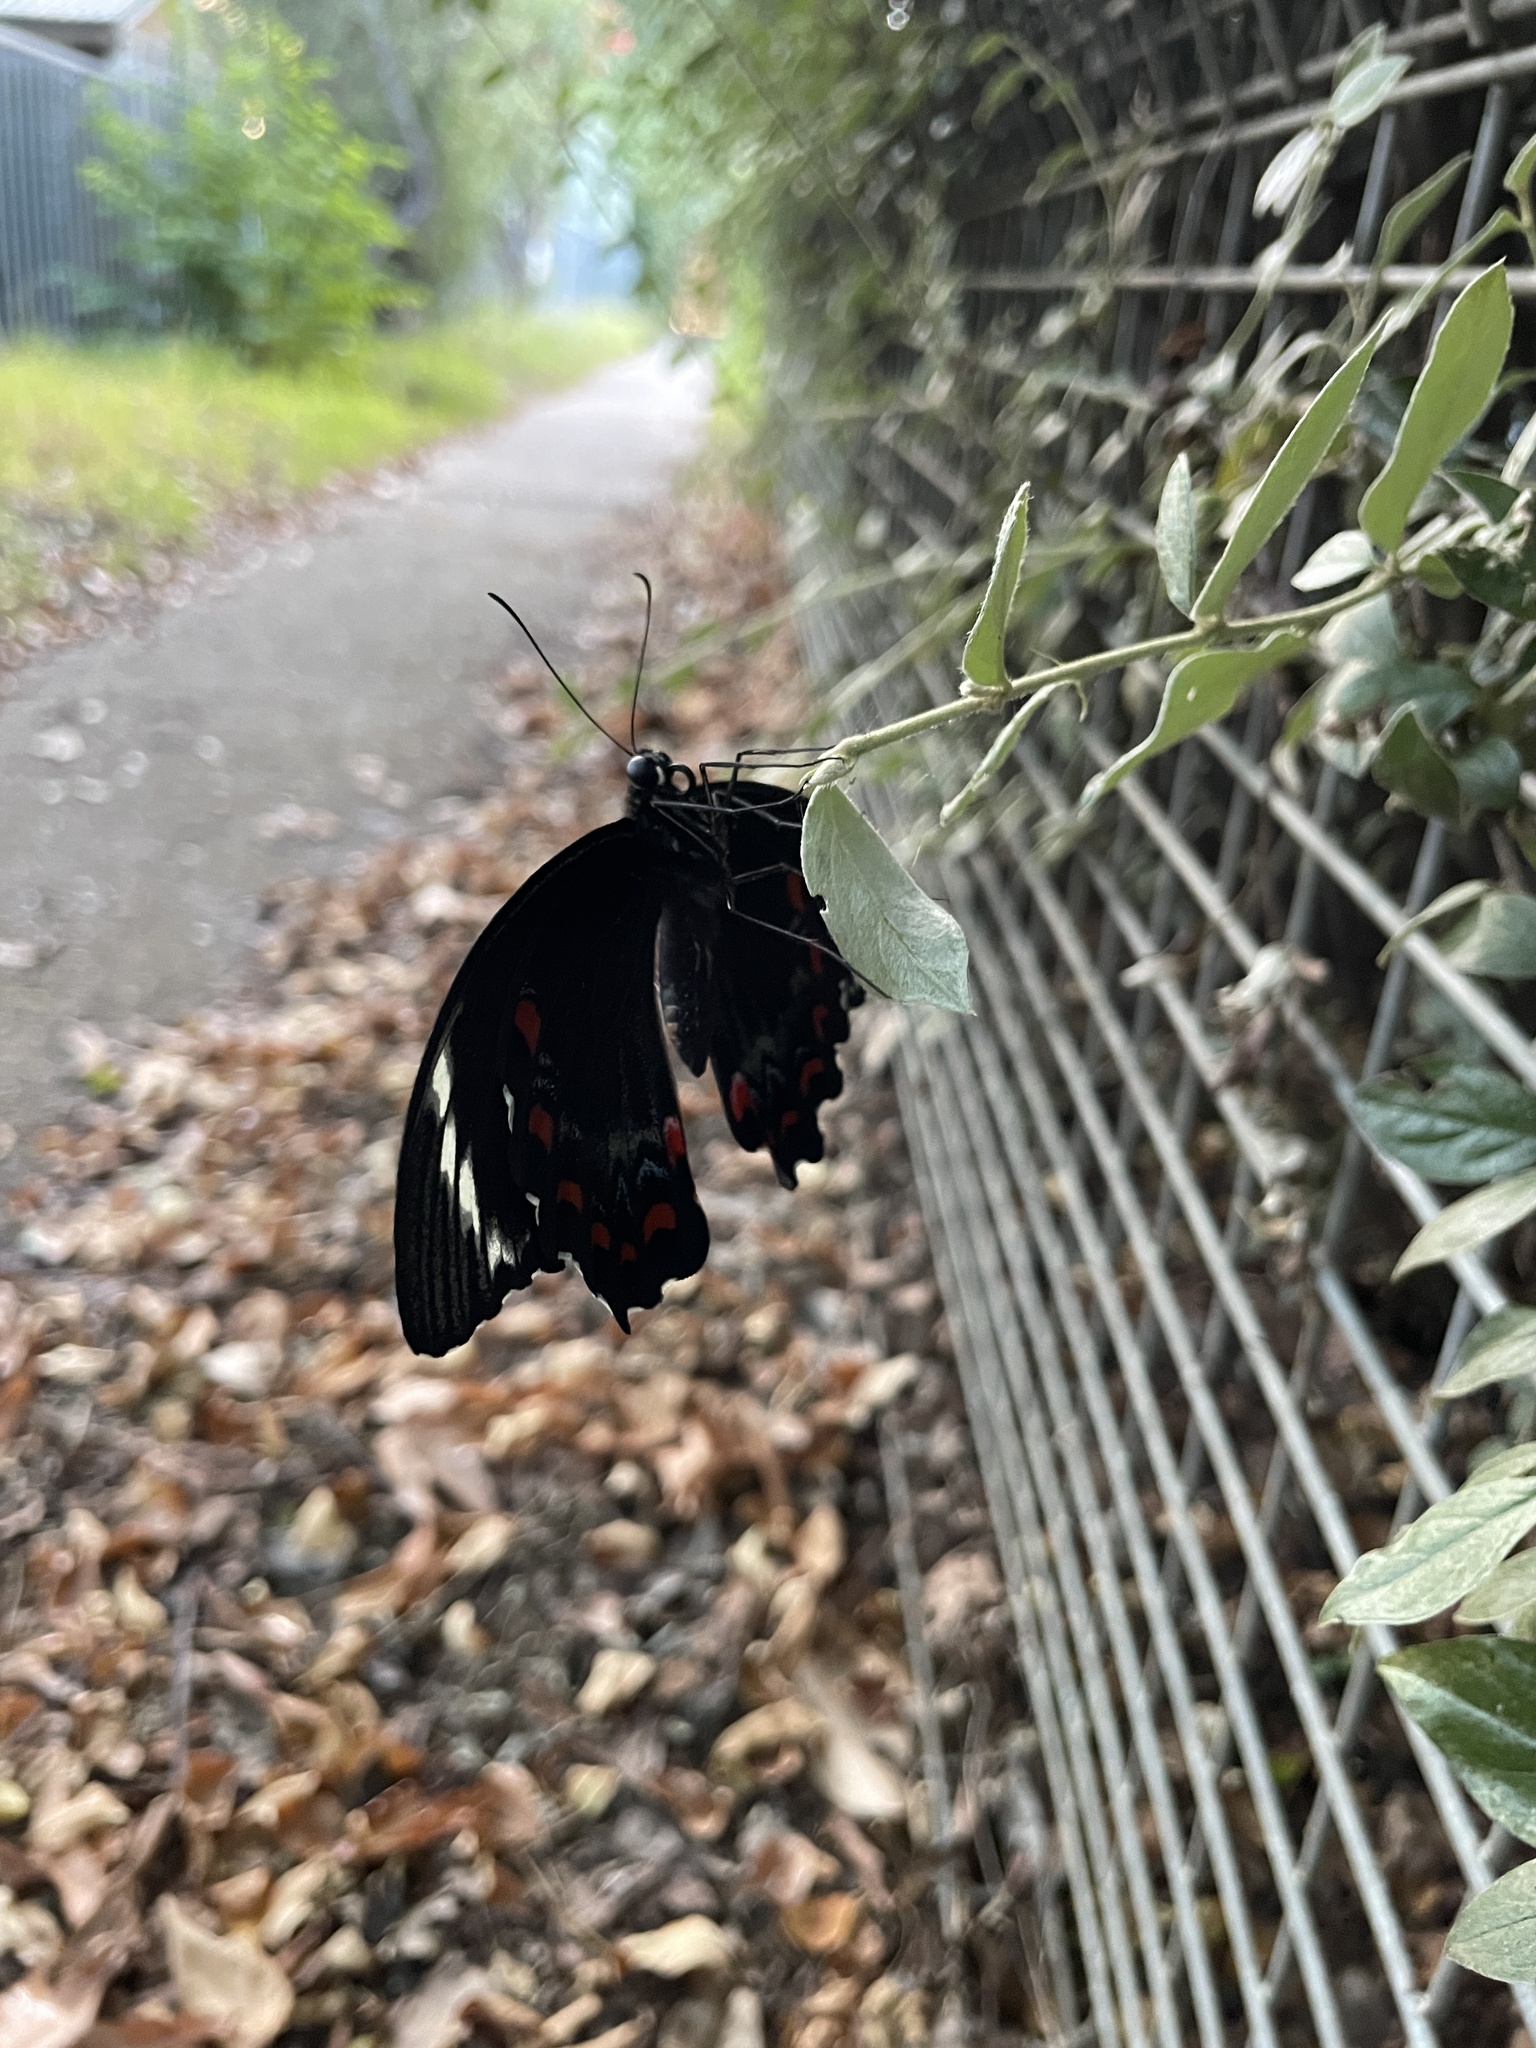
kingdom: Animalia
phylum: Arthropoda
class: Insecta
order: Lepidoptera
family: Papilionidae
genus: Papilio
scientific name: Papilio aegeus
